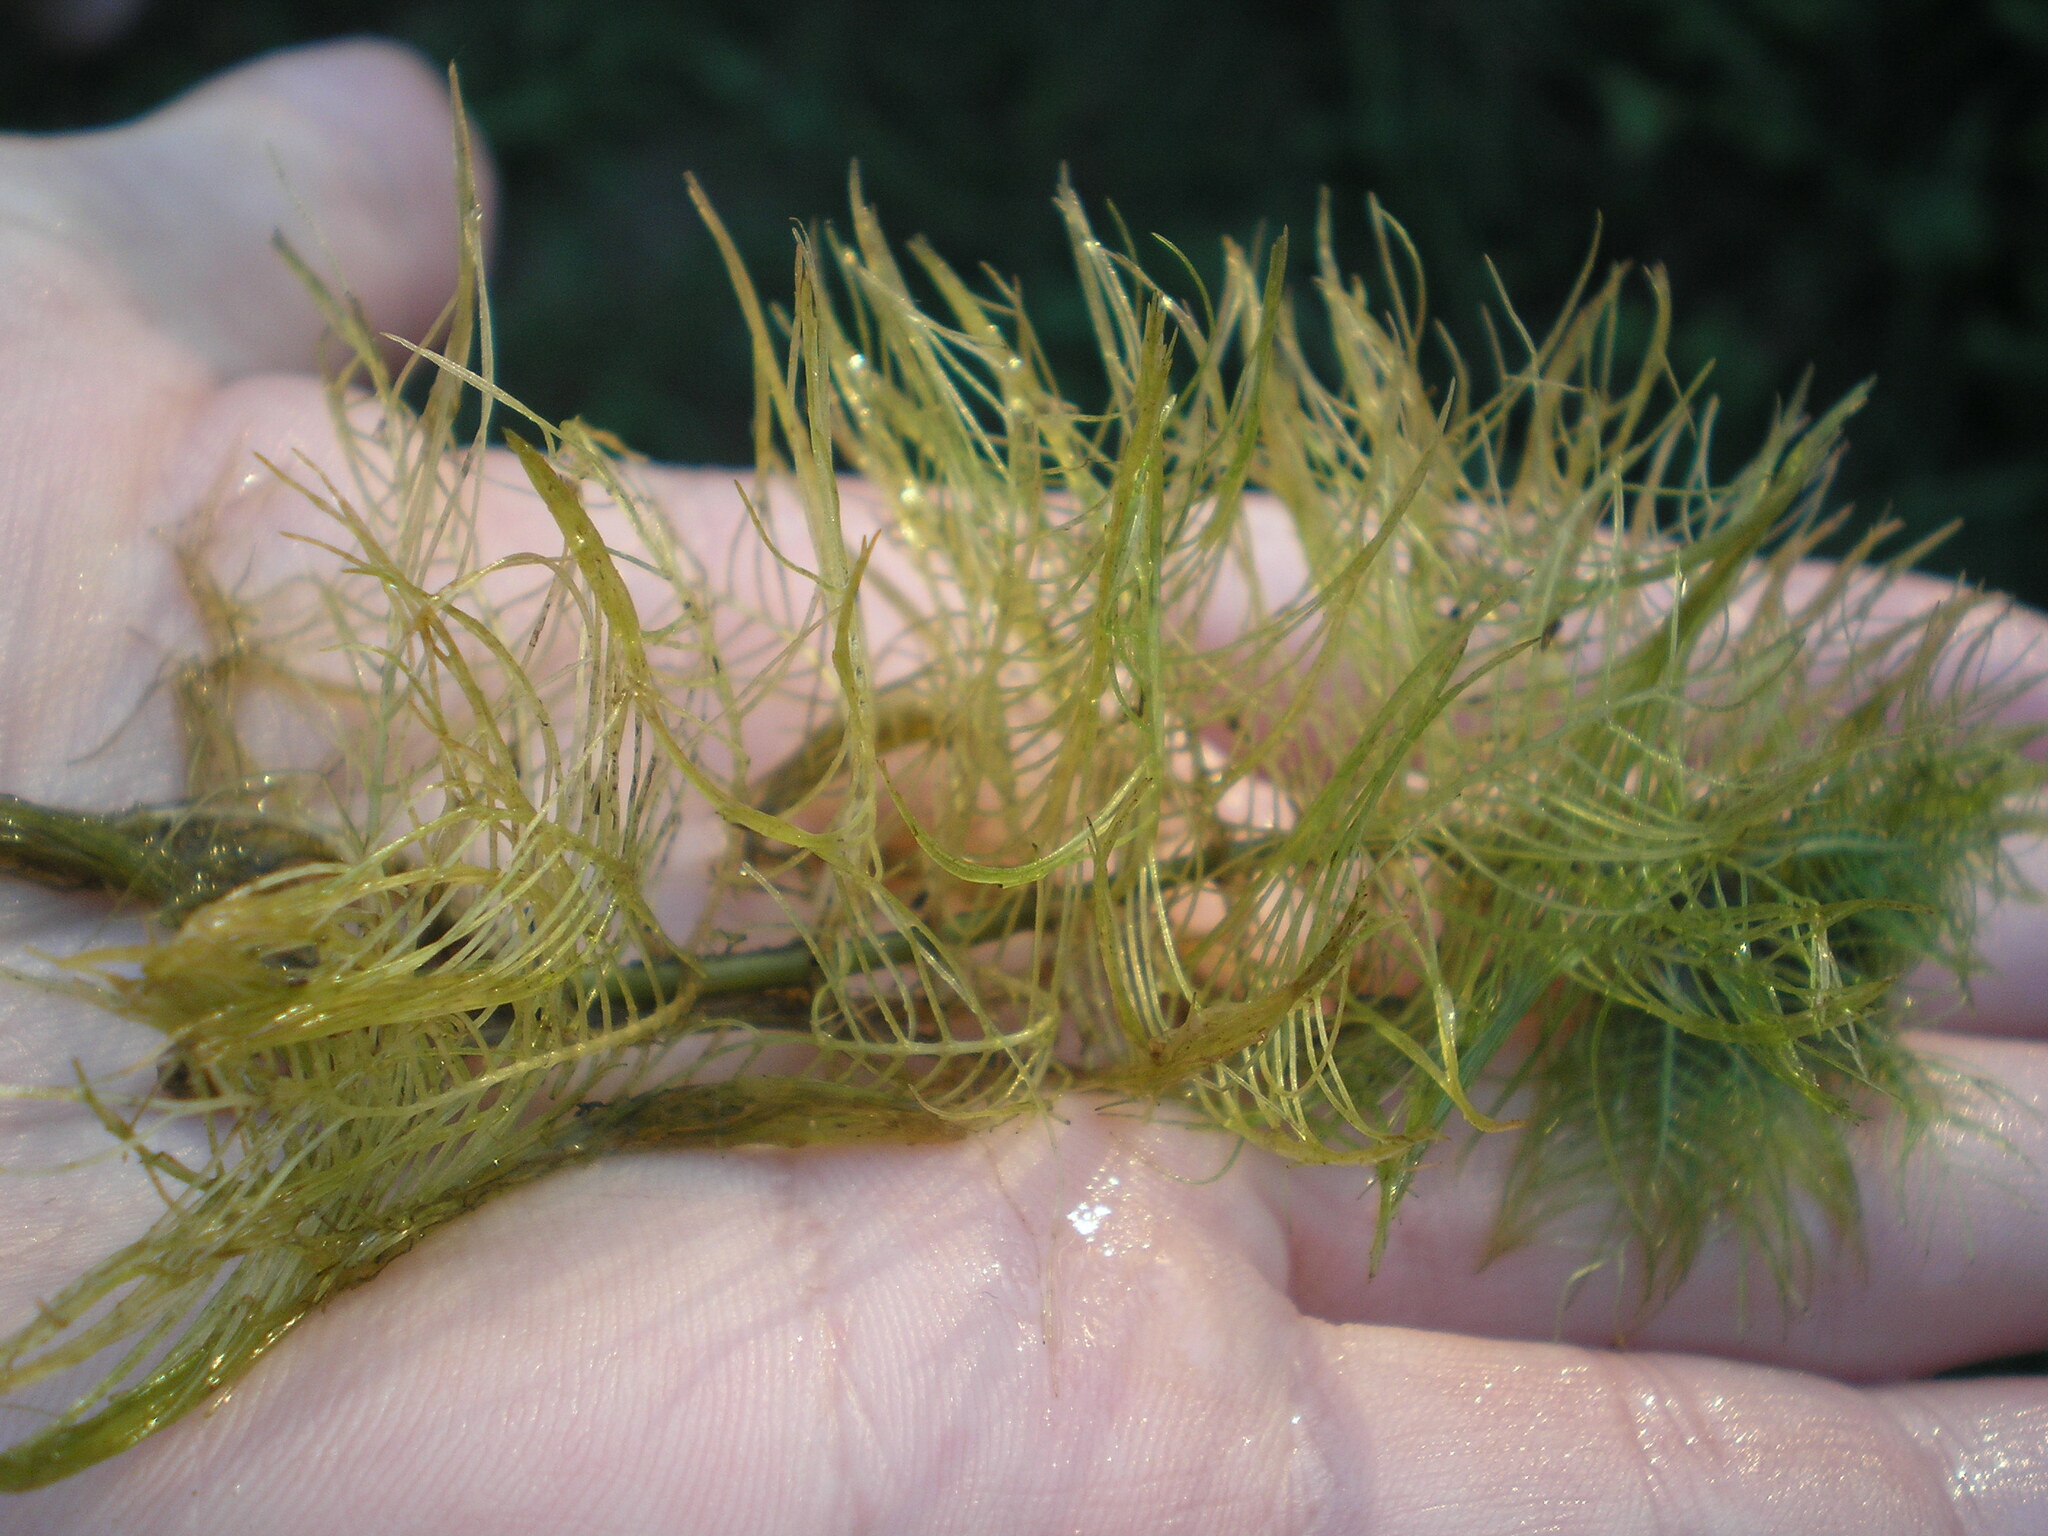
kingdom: Plantae
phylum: Tracheophyta
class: Magnoliopsida
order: Saxifragales
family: Haloragaceae
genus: Myriophyllum
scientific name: Myriophyllum verticillatum
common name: Whorled water-milfoil
